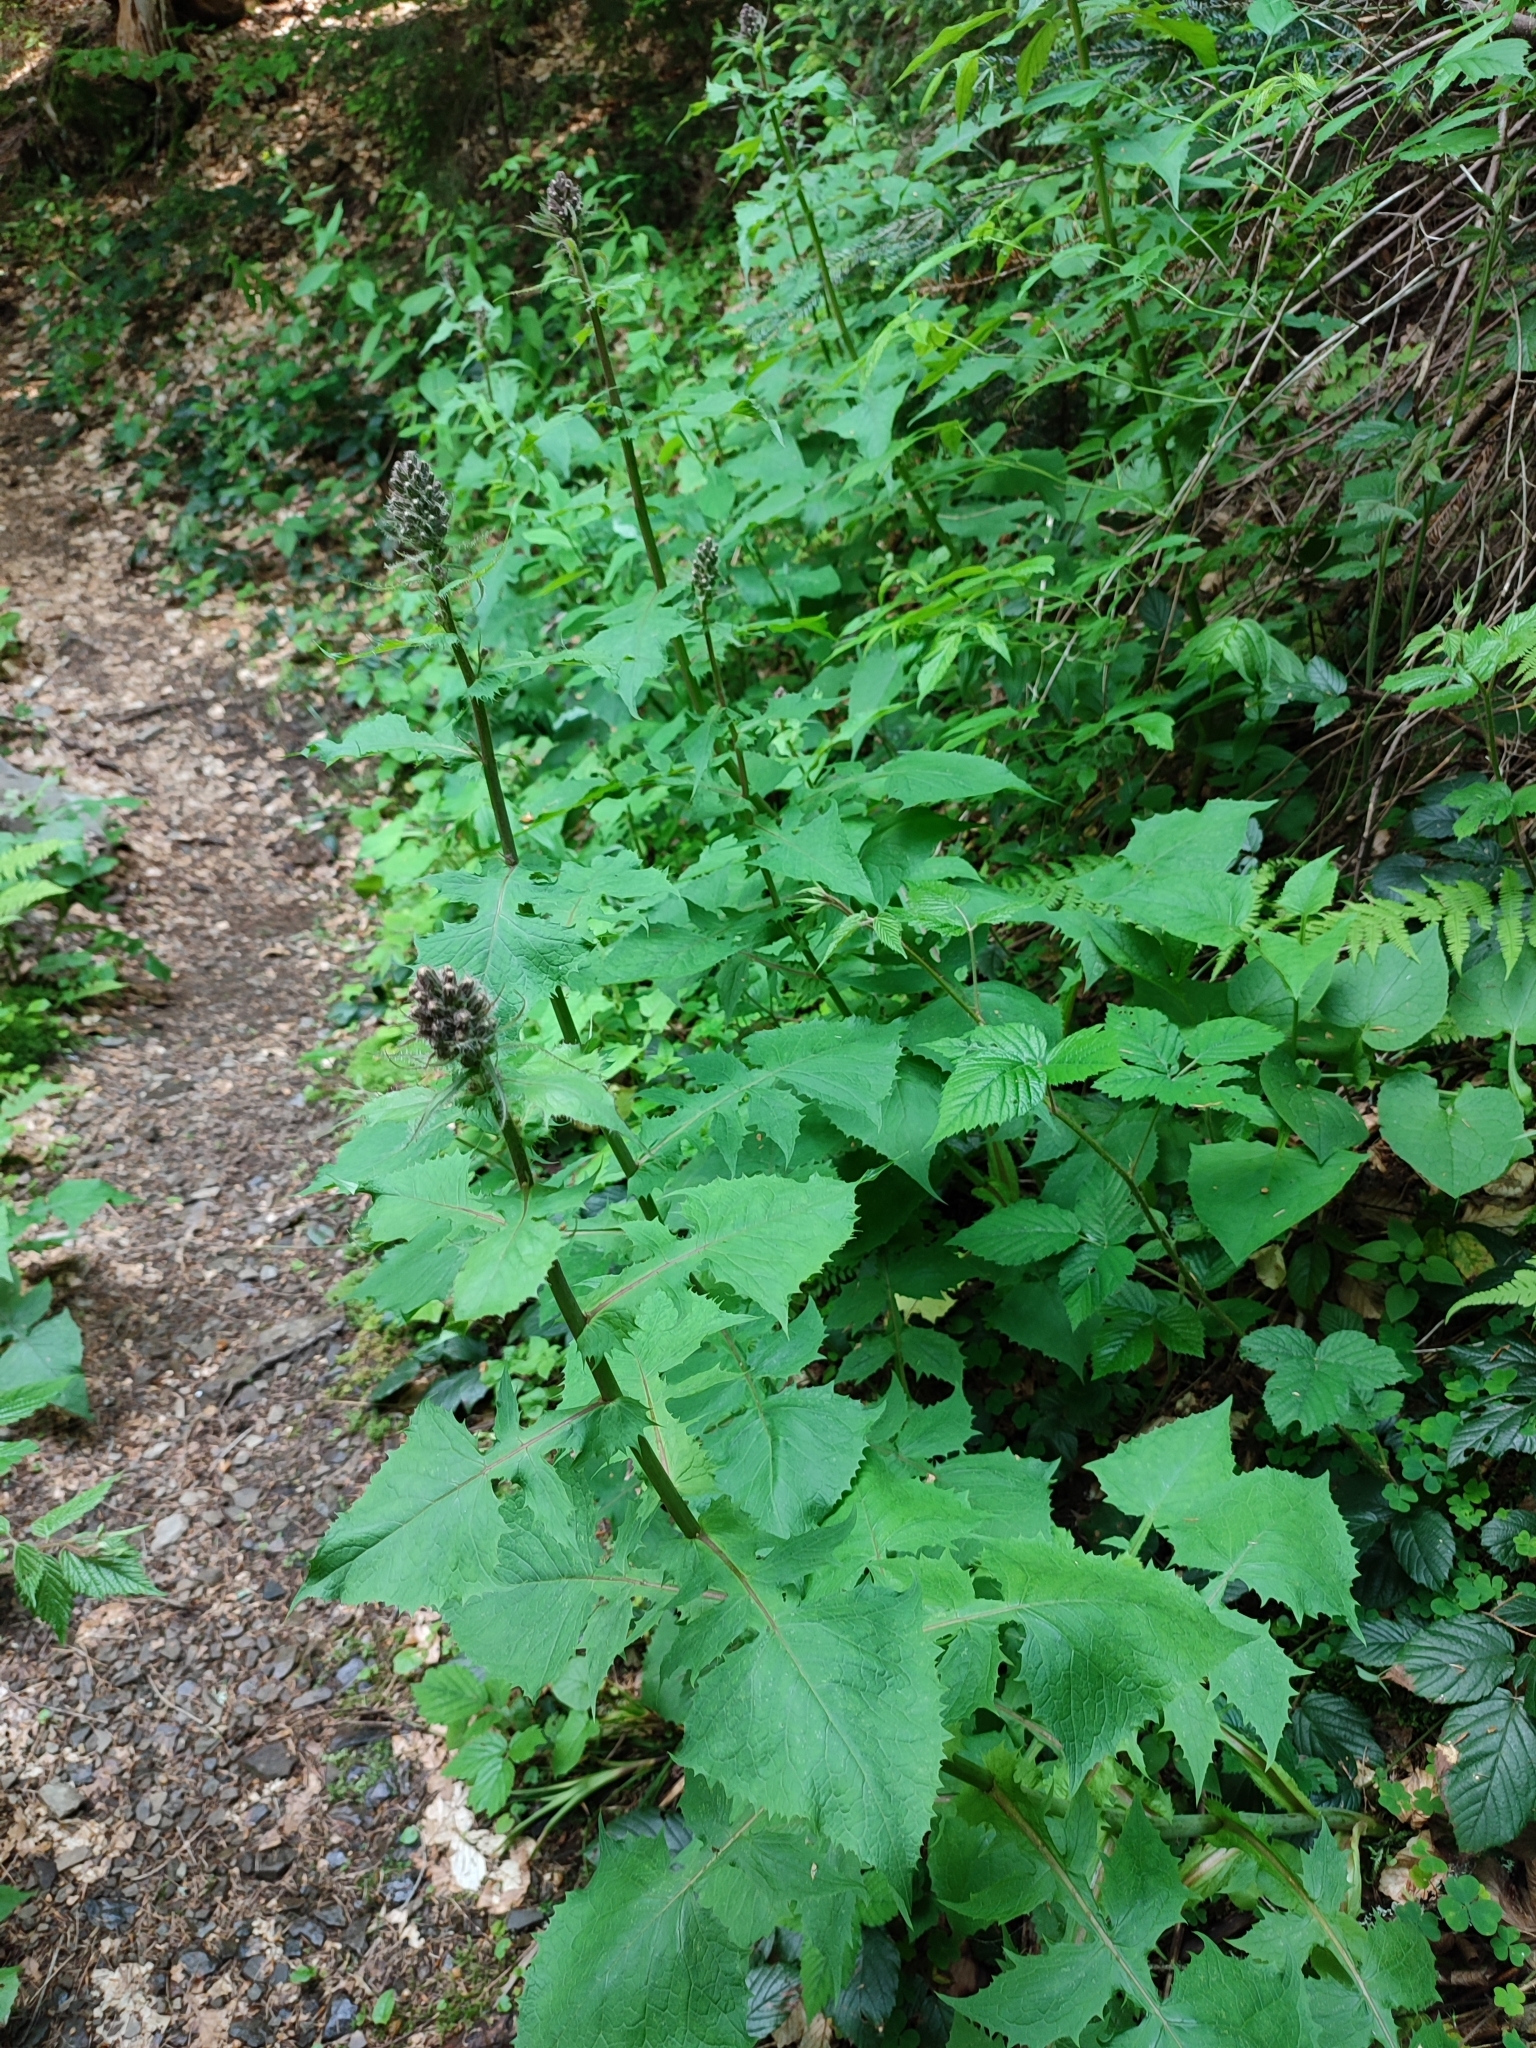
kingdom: Plantae
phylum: Tracheophyta
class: Magnoliopsida
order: Asterales
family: Asteraceae
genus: Cicerbita
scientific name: Cicerbita alpina
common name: Alpine blue-sow-thistle
